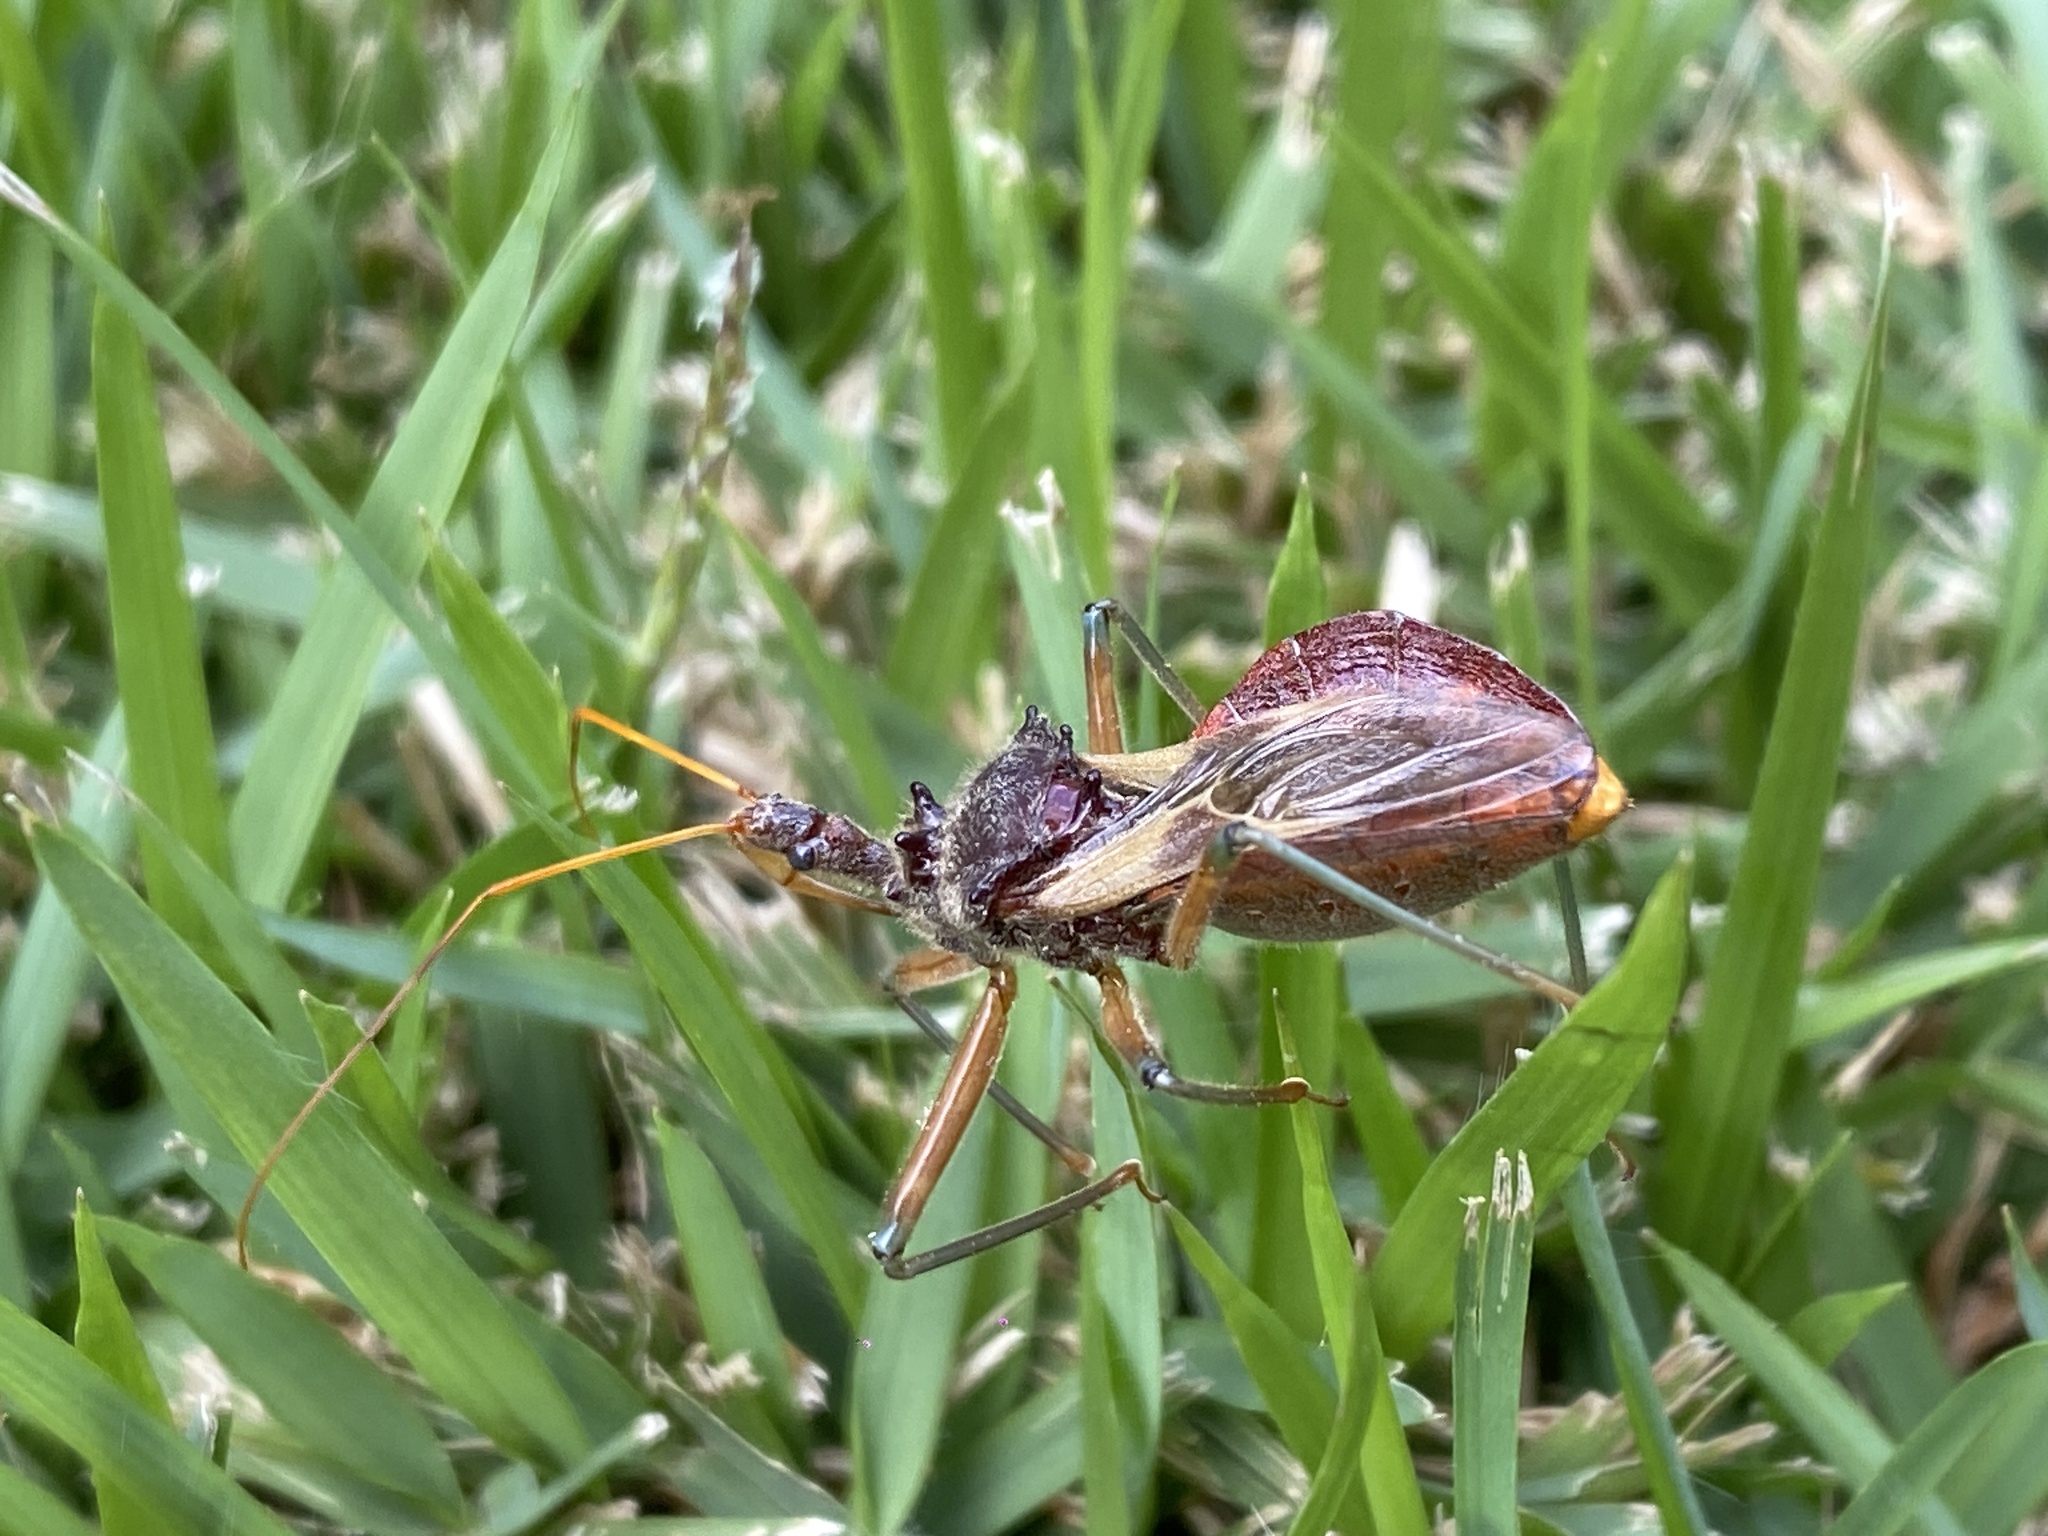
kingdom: Animalia
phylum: Arthropoda
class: Insecta
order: Hemiptera
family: Reduviidae
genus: Pristhesancus
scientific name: Pristhesancus plagipennis
